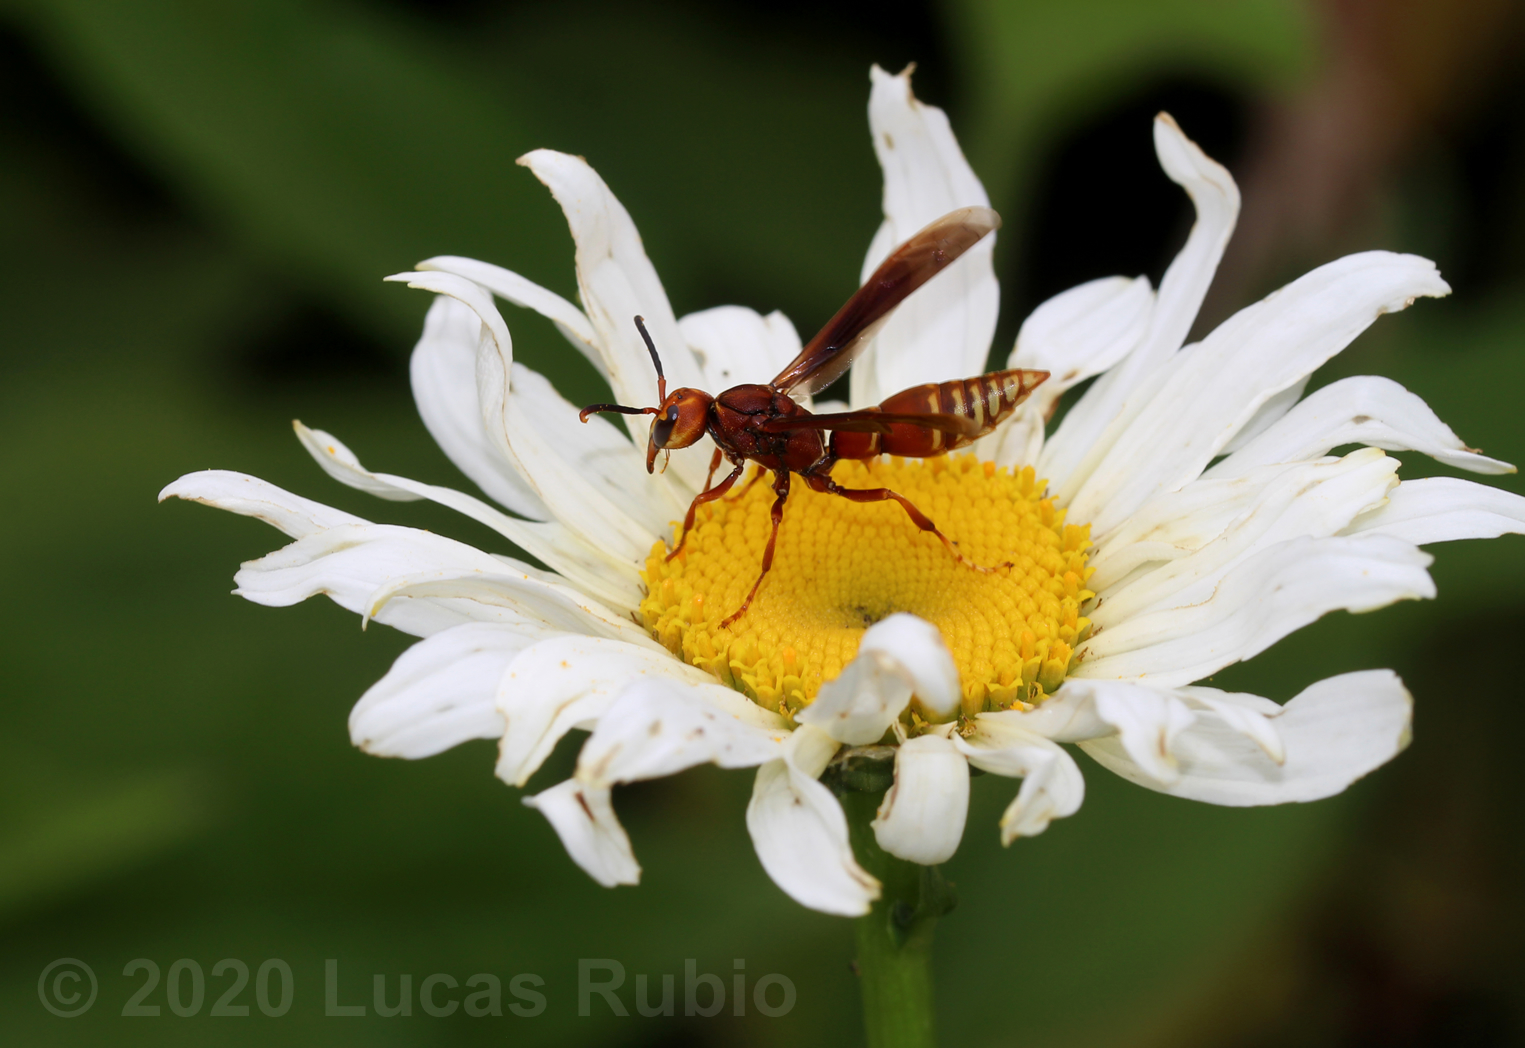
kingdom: Animalia
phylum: Arthropoda
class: Insecta
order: Hymenoptera
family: Eumenidae
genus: Montezumia
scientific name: Montezumia ferruginea
